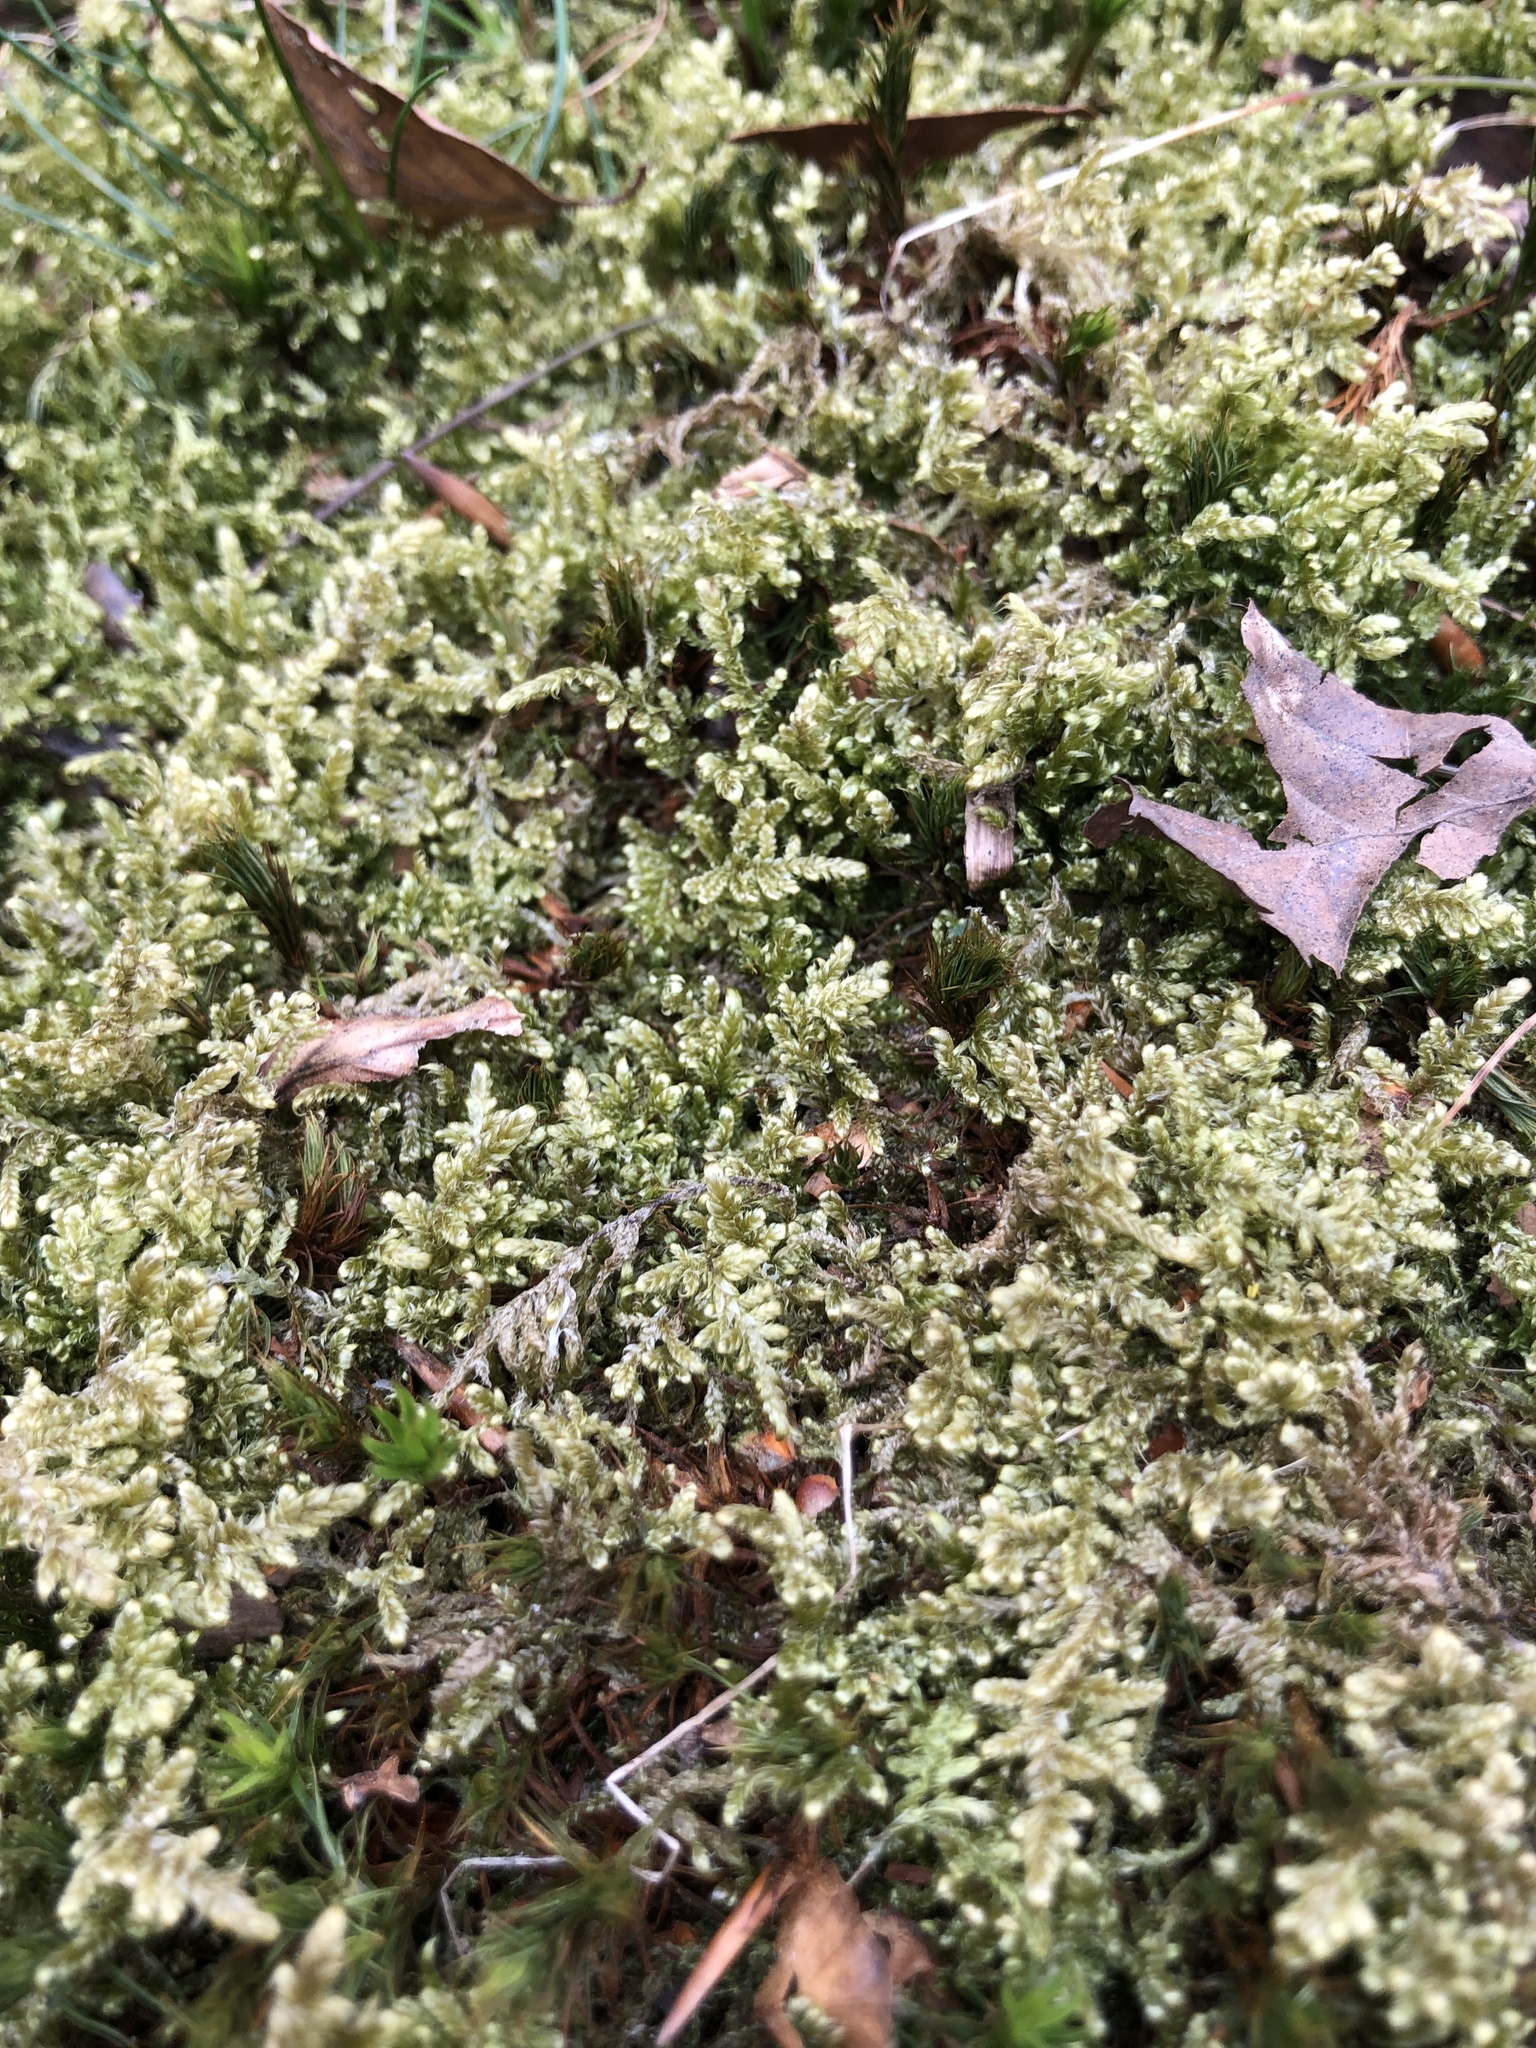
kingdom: Plantae
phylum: Bryophyta
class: Bryopsida
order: Hypnales
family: Hypnaceae
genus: Hypnum
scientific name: Hypnum jutlandicum
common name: Heath plait-moss
